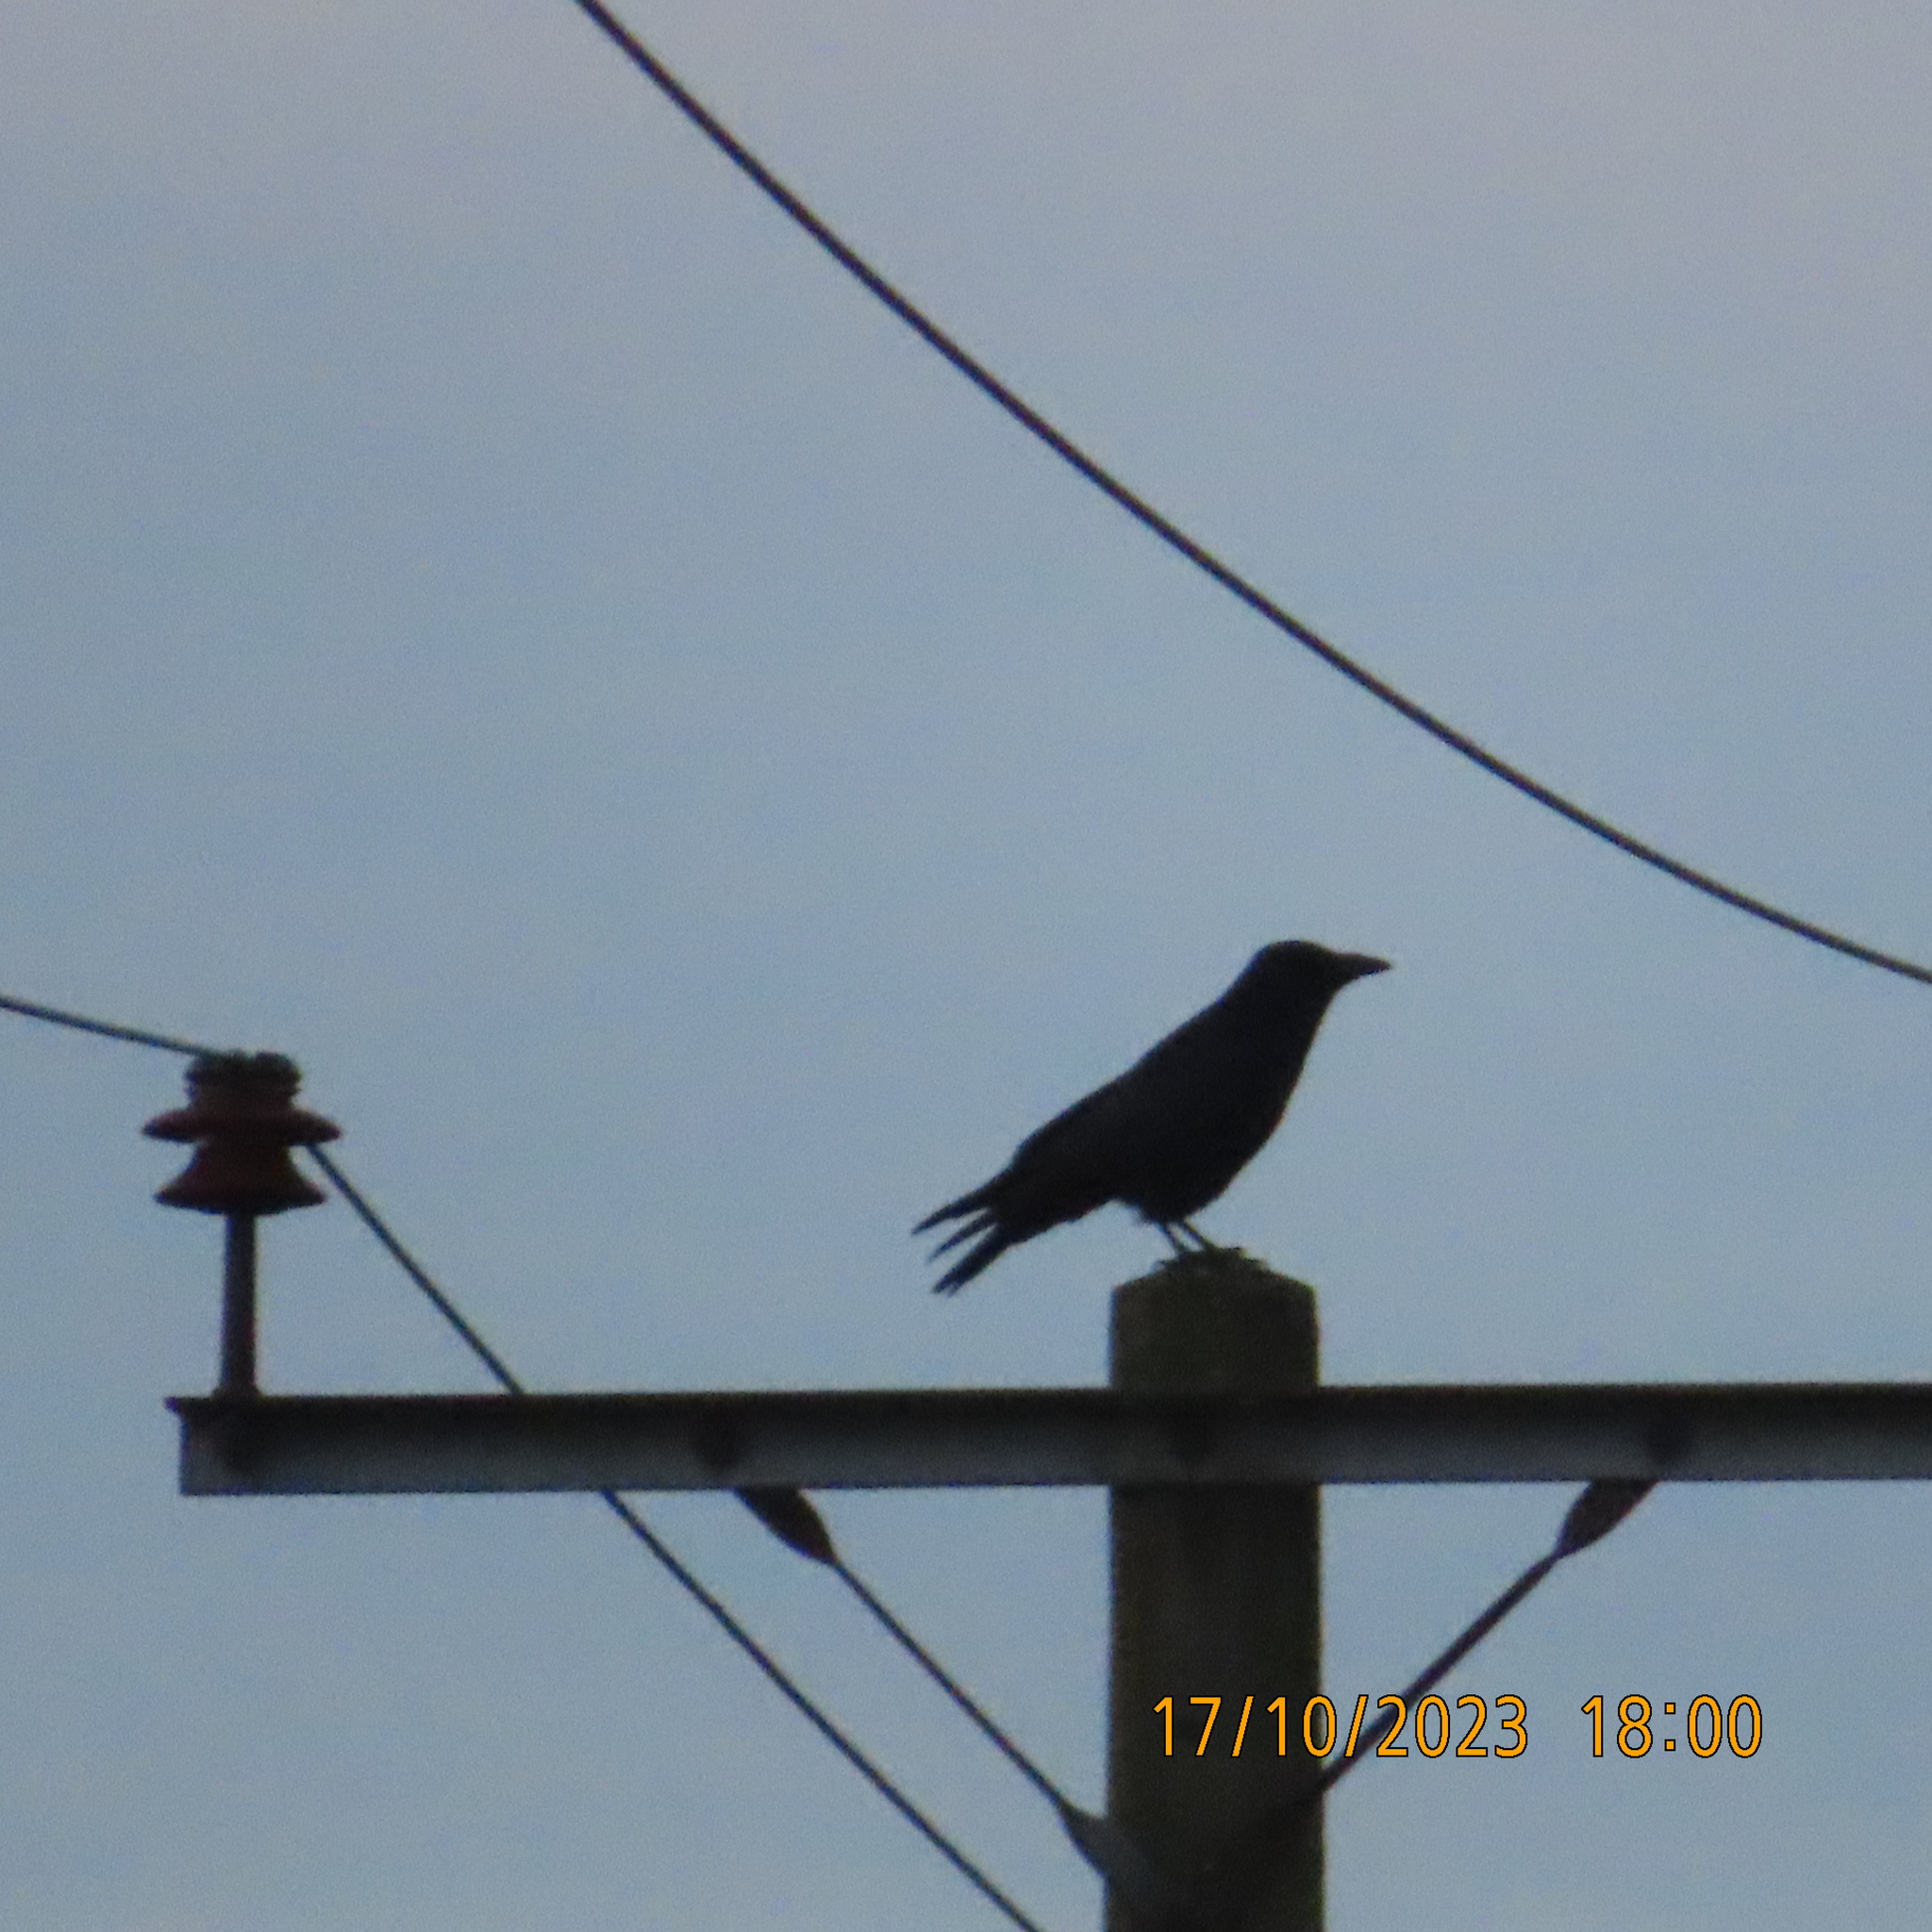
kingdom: Animalia
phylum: Chordata
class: Aves
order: Passeriformes
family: Corvidae
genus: Corvus
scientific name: Corvus corone
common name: Carrion crow
